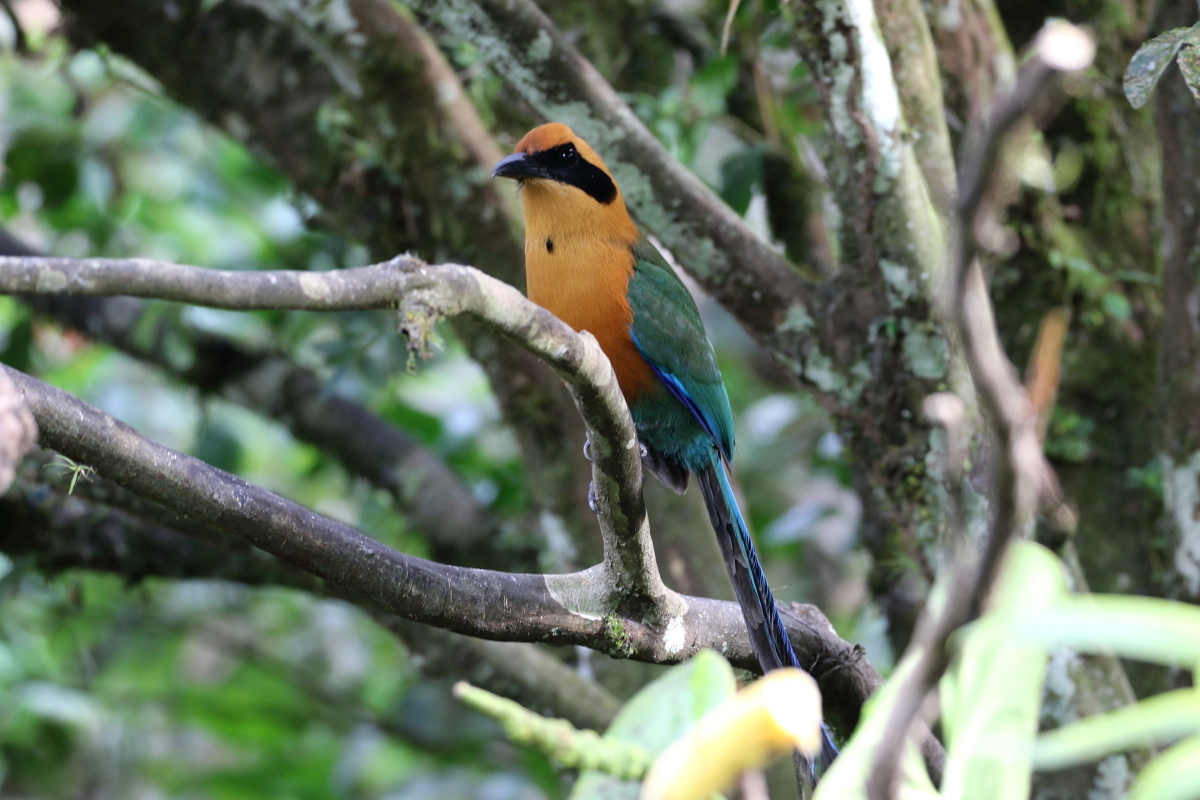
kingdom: Animalia
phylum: Chordata
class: Aves
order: Coraciiformes
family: Momotidae
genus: Baryphthengus
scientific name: Baryphthengus martii
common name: Rufous motmot
